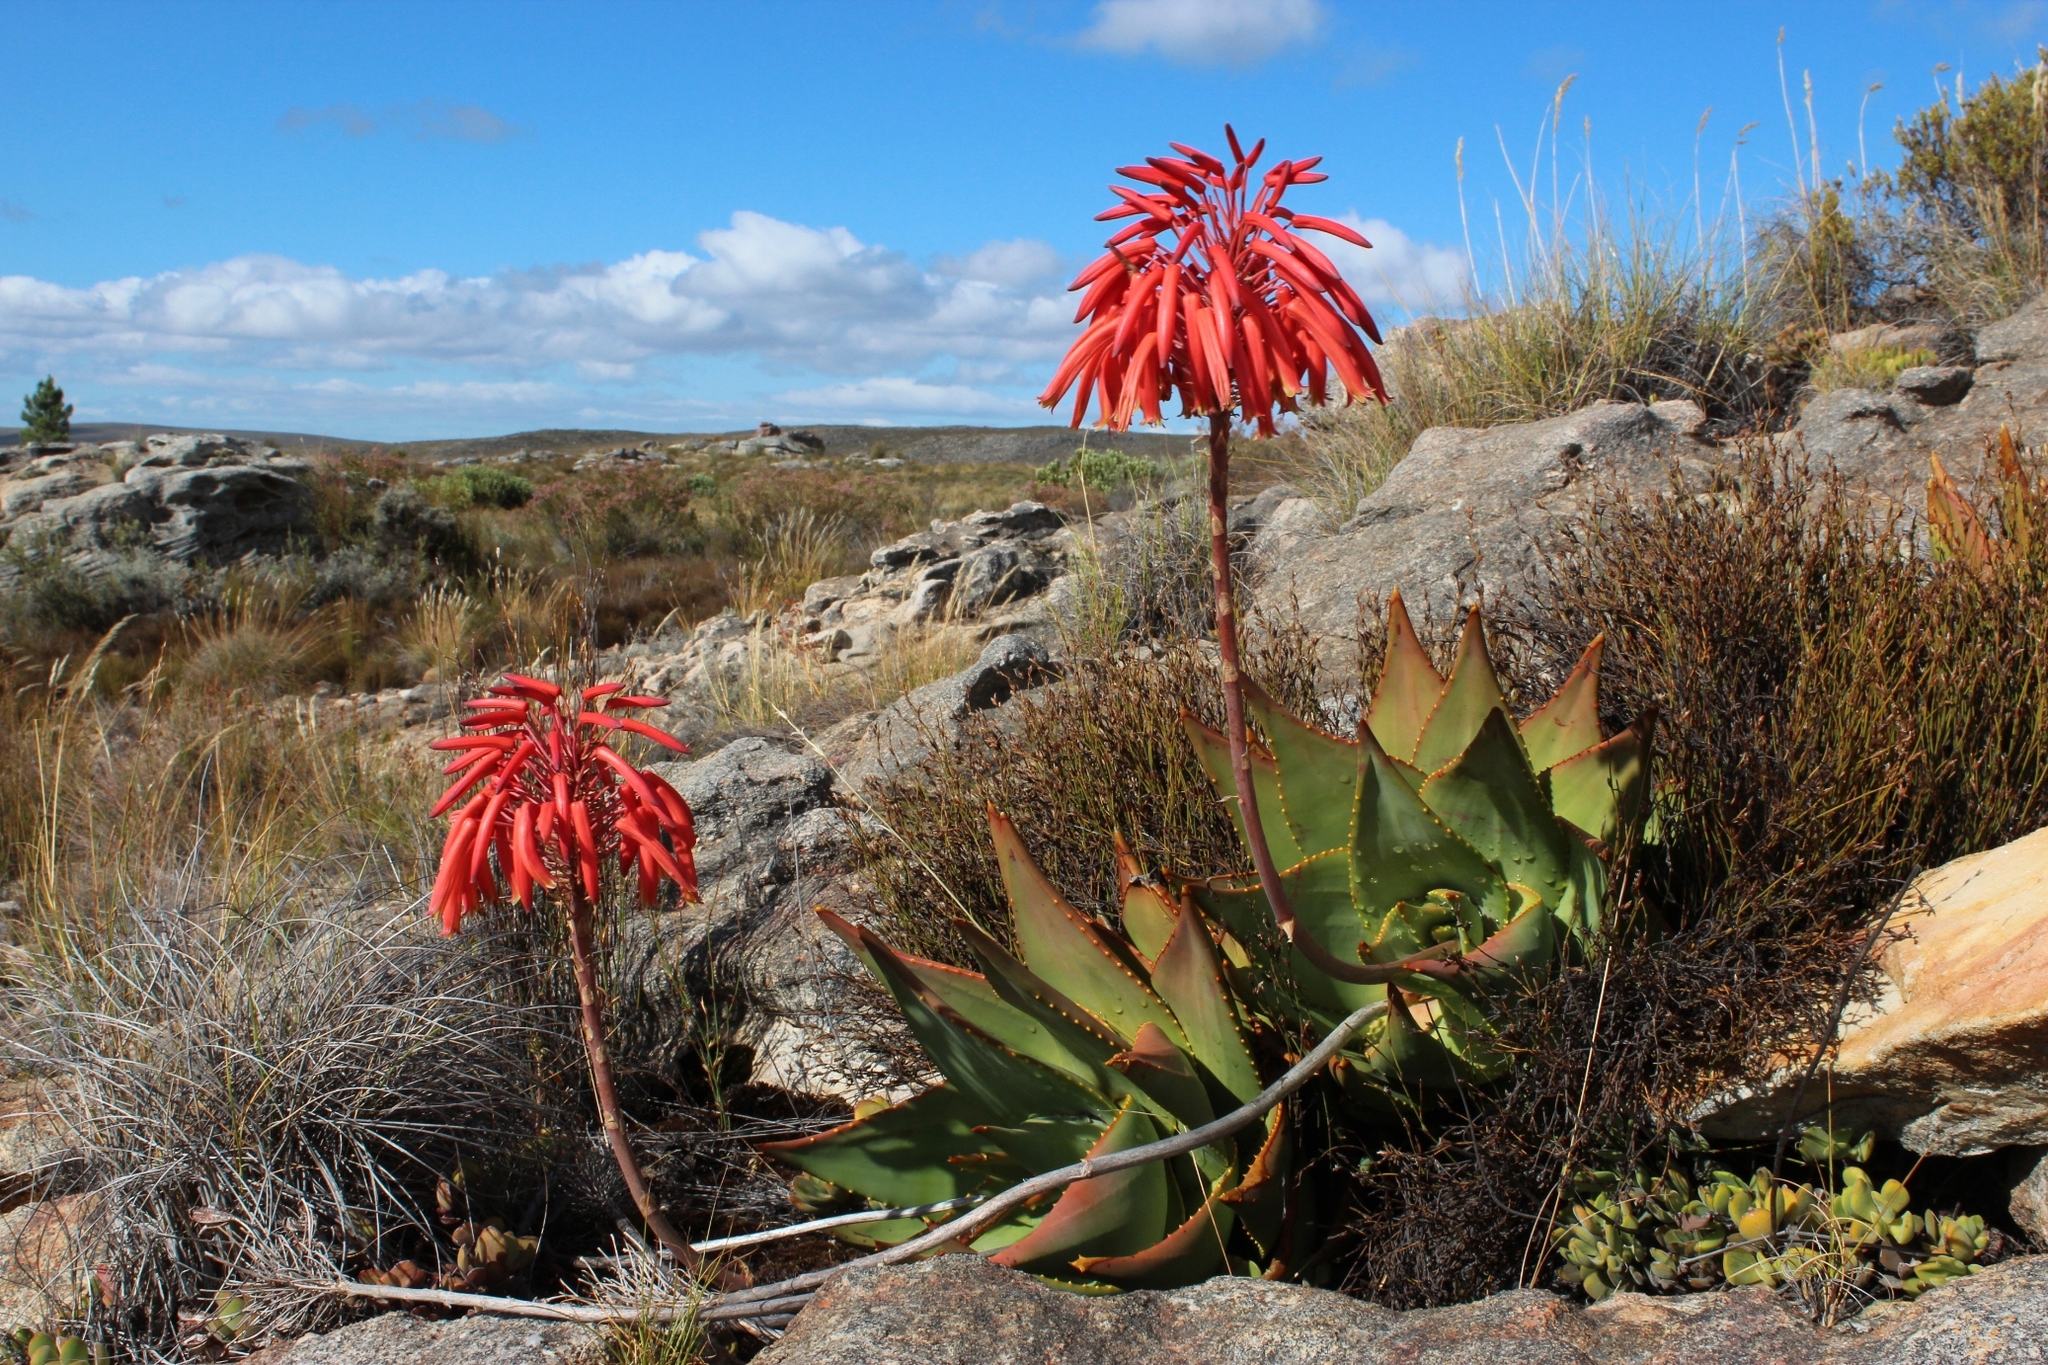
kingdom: Plantae
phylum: Tracheophyta
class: Liliopsida
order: Asparagales
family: Asphodelaceae
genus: Aloe
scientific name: Aloe perfoliata
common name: Mitra aloe
